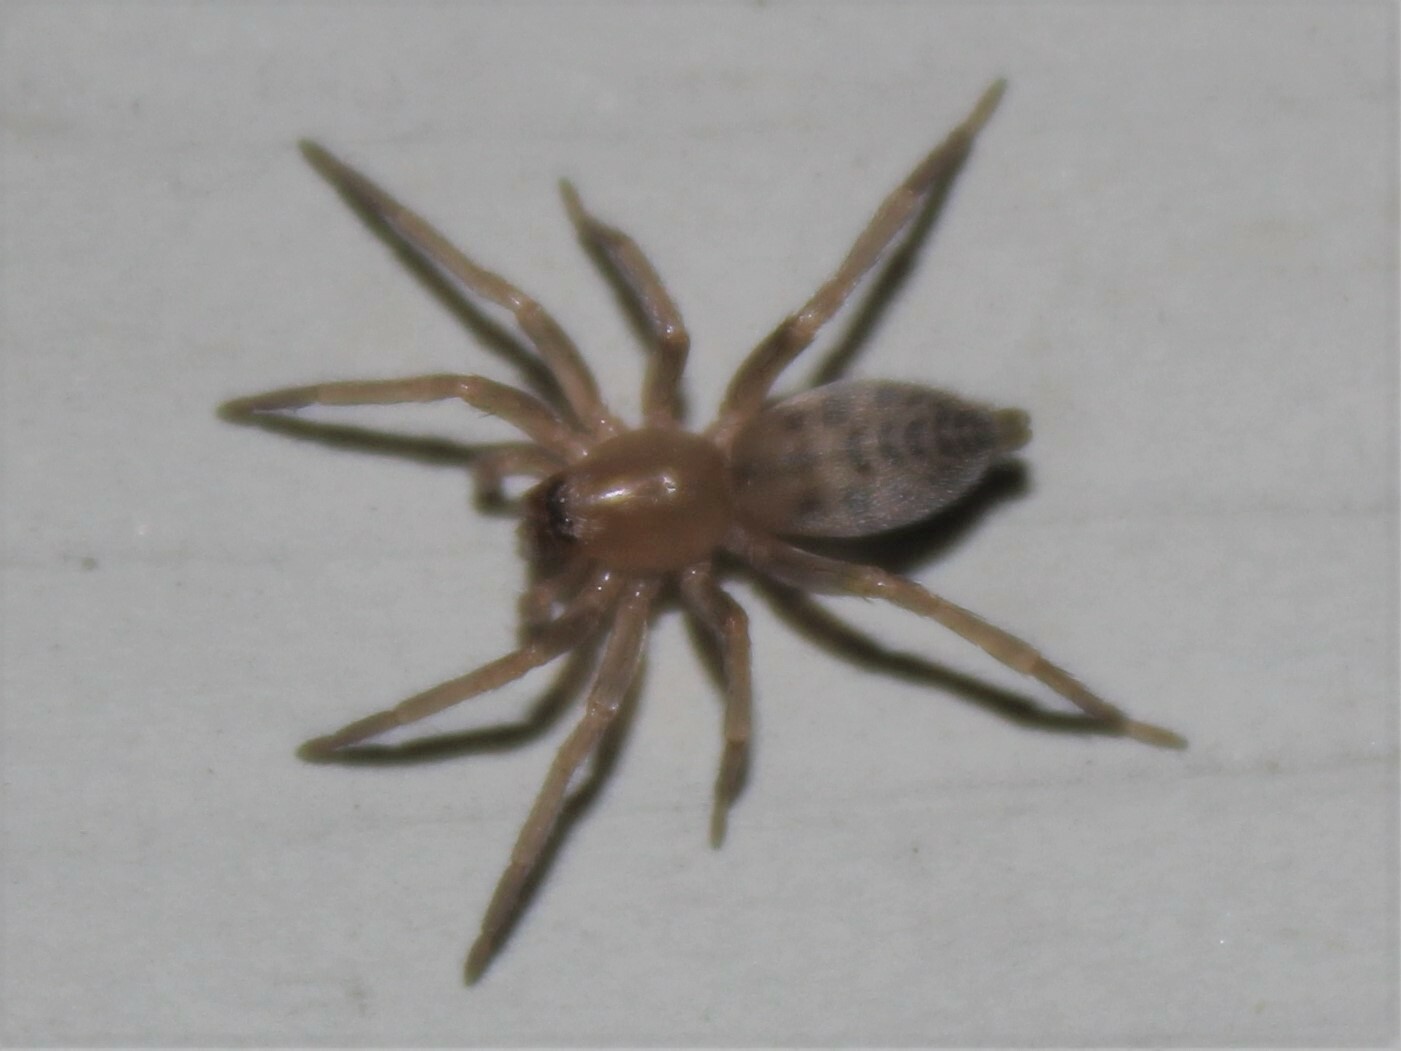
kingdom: Animalia
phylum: Arthropoda
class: Arachnida
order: Araneae
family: Clubionidae
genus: Elaver
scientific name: Elaver excepta
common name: White sac spider
